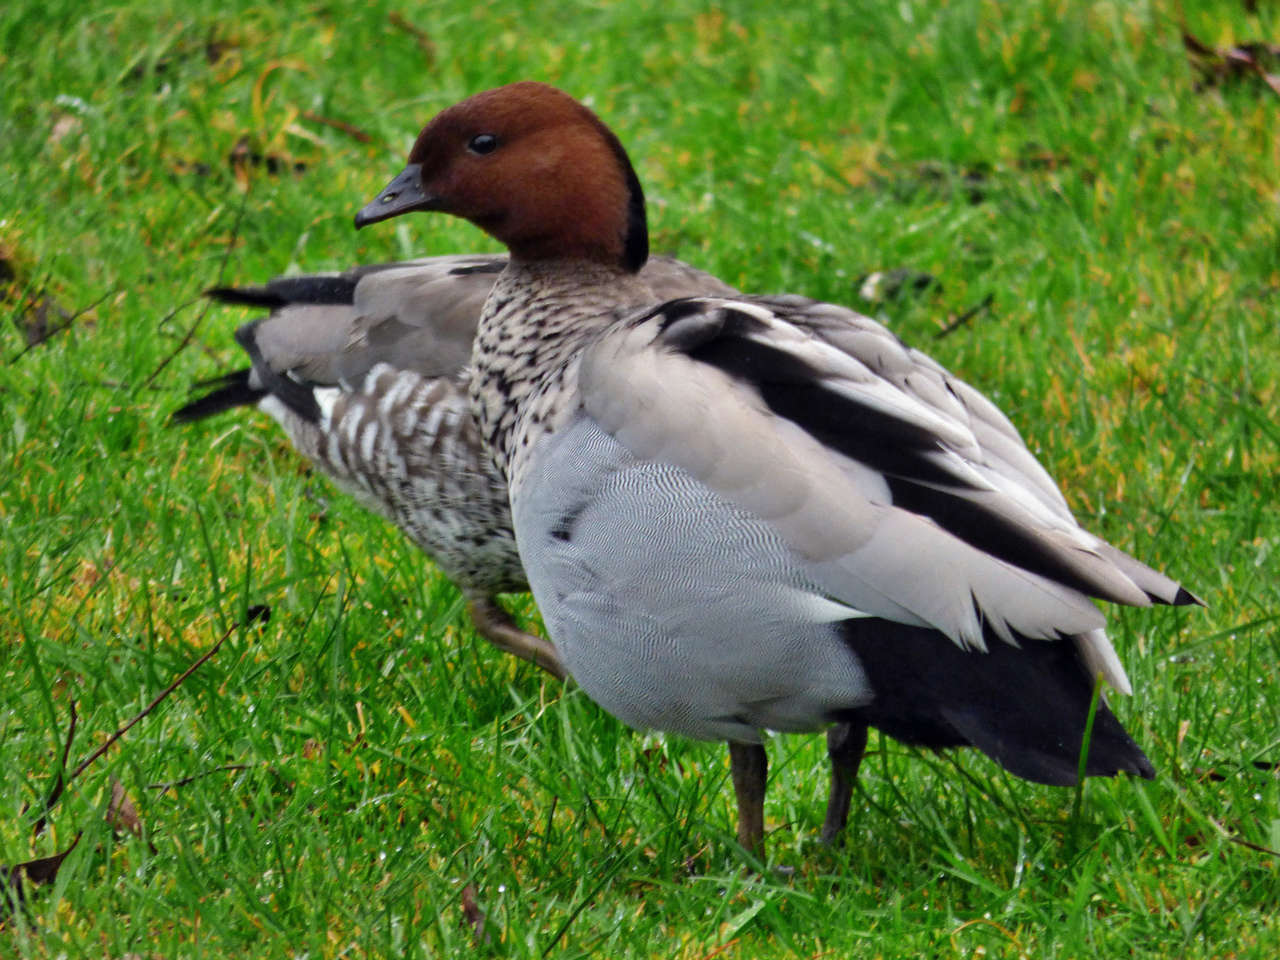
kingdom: Animalia
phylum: Chordata
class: Aves
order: Anseriformes
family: Anatidae
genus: Chenonetta
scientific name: Chenonetta jubata
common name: Maned duck
